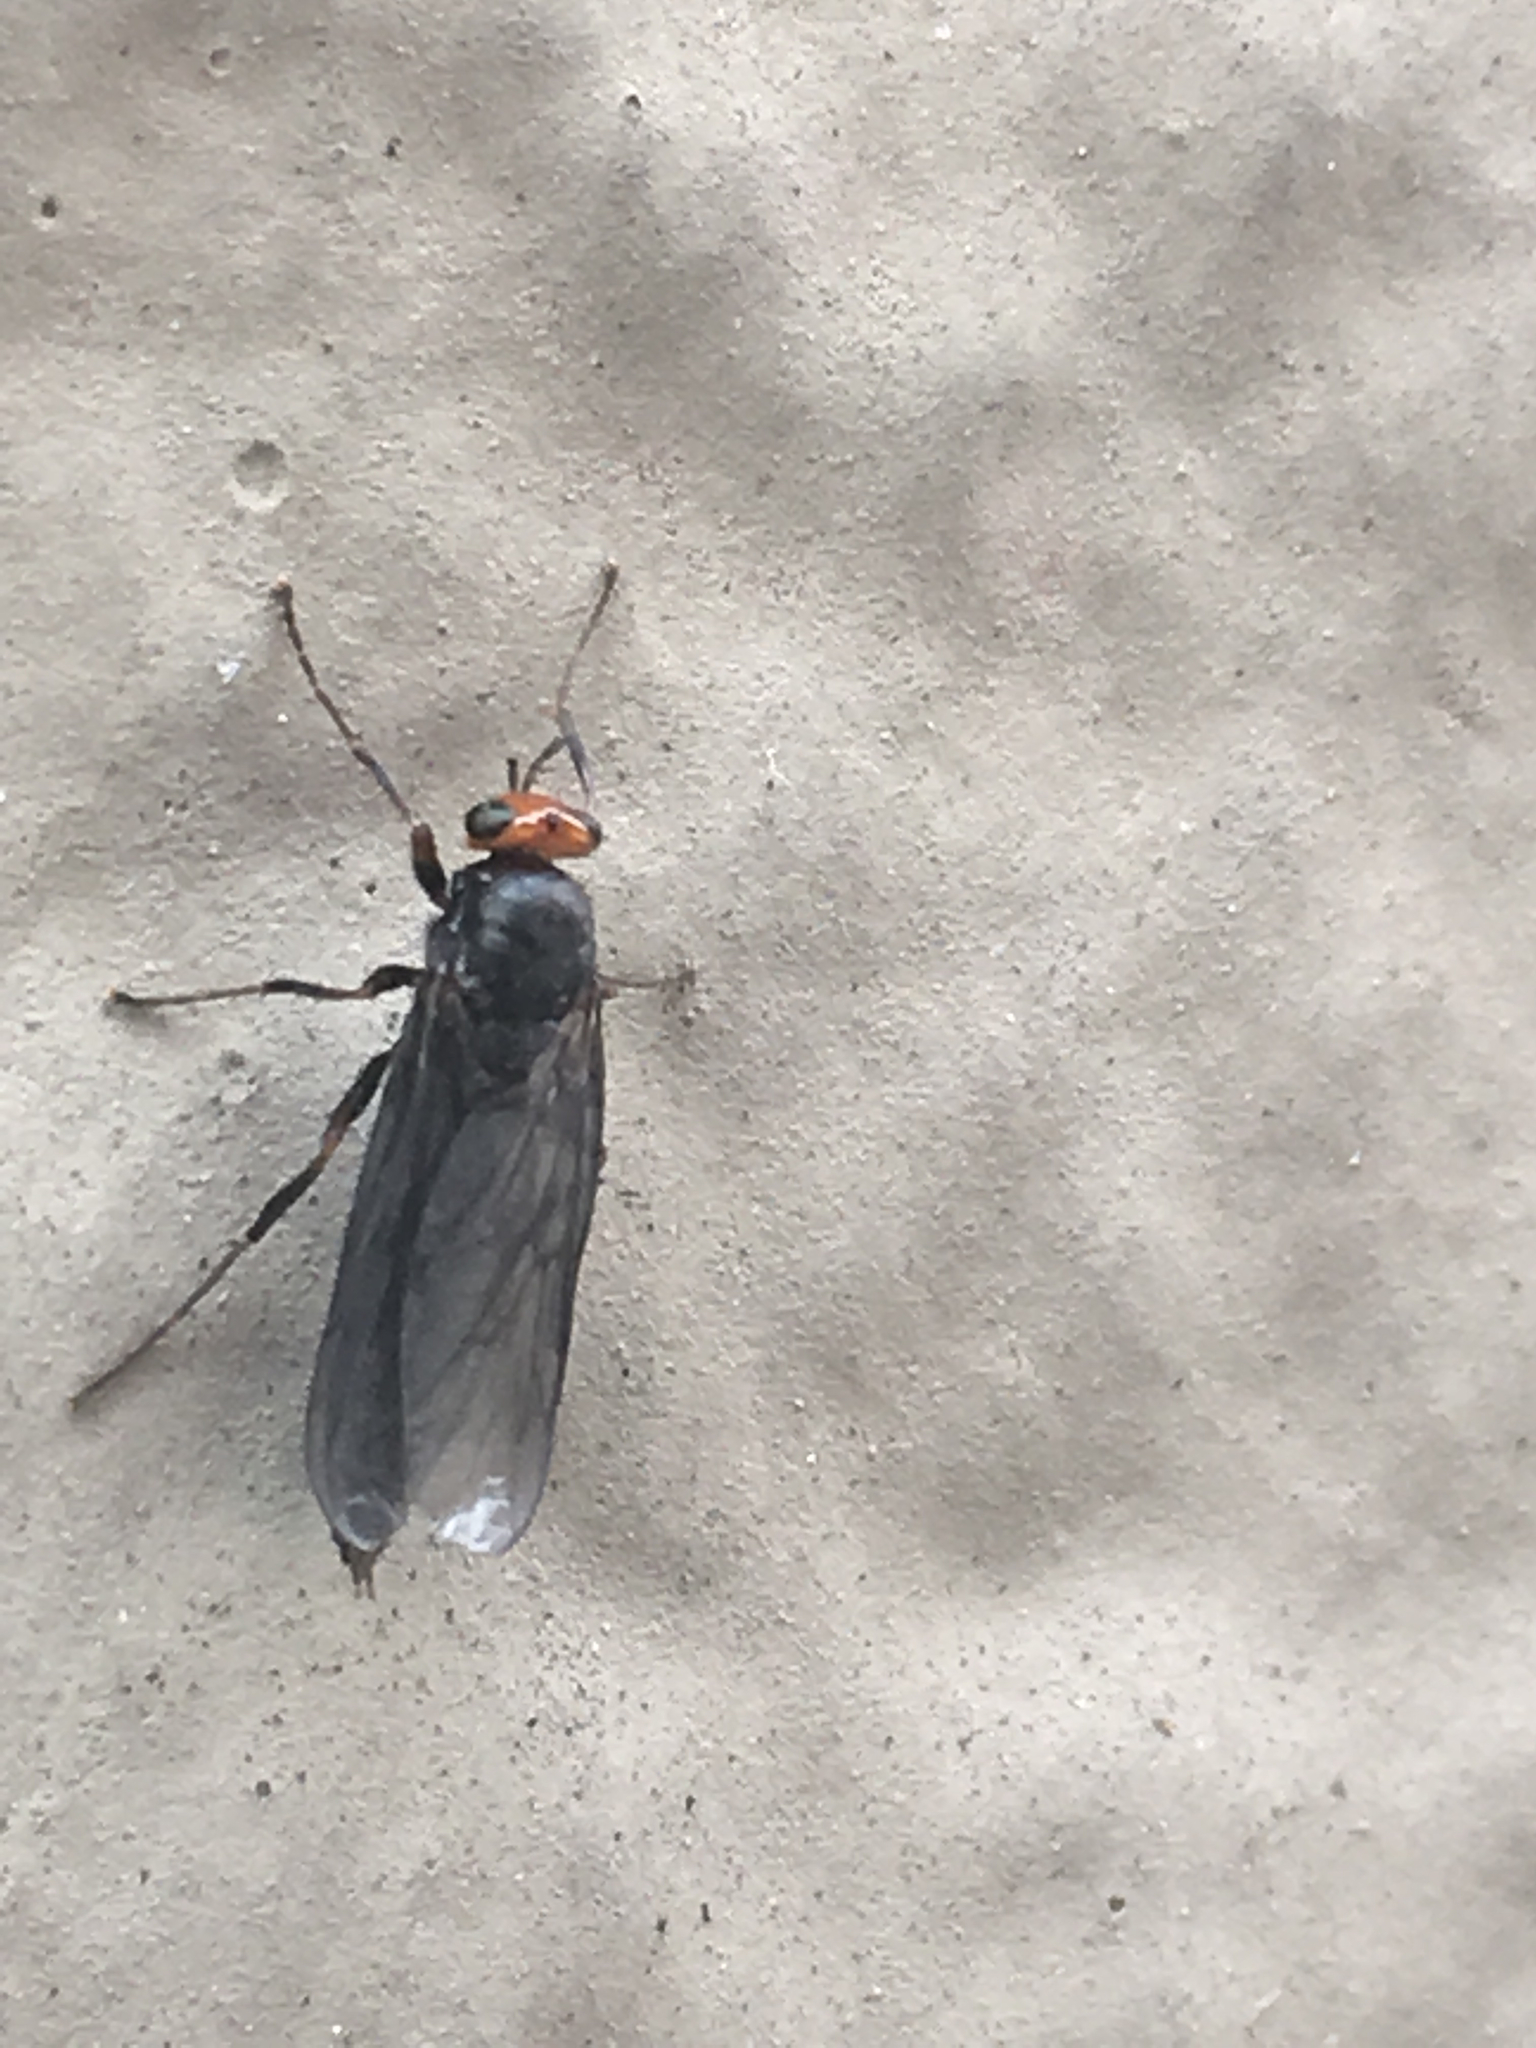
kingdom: Animalia
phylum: Arthropoda
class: Insecta
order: Diptera
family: Stratiomyidae
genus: Inopus
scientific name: Inopus rubriceps
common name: Soldier fly
